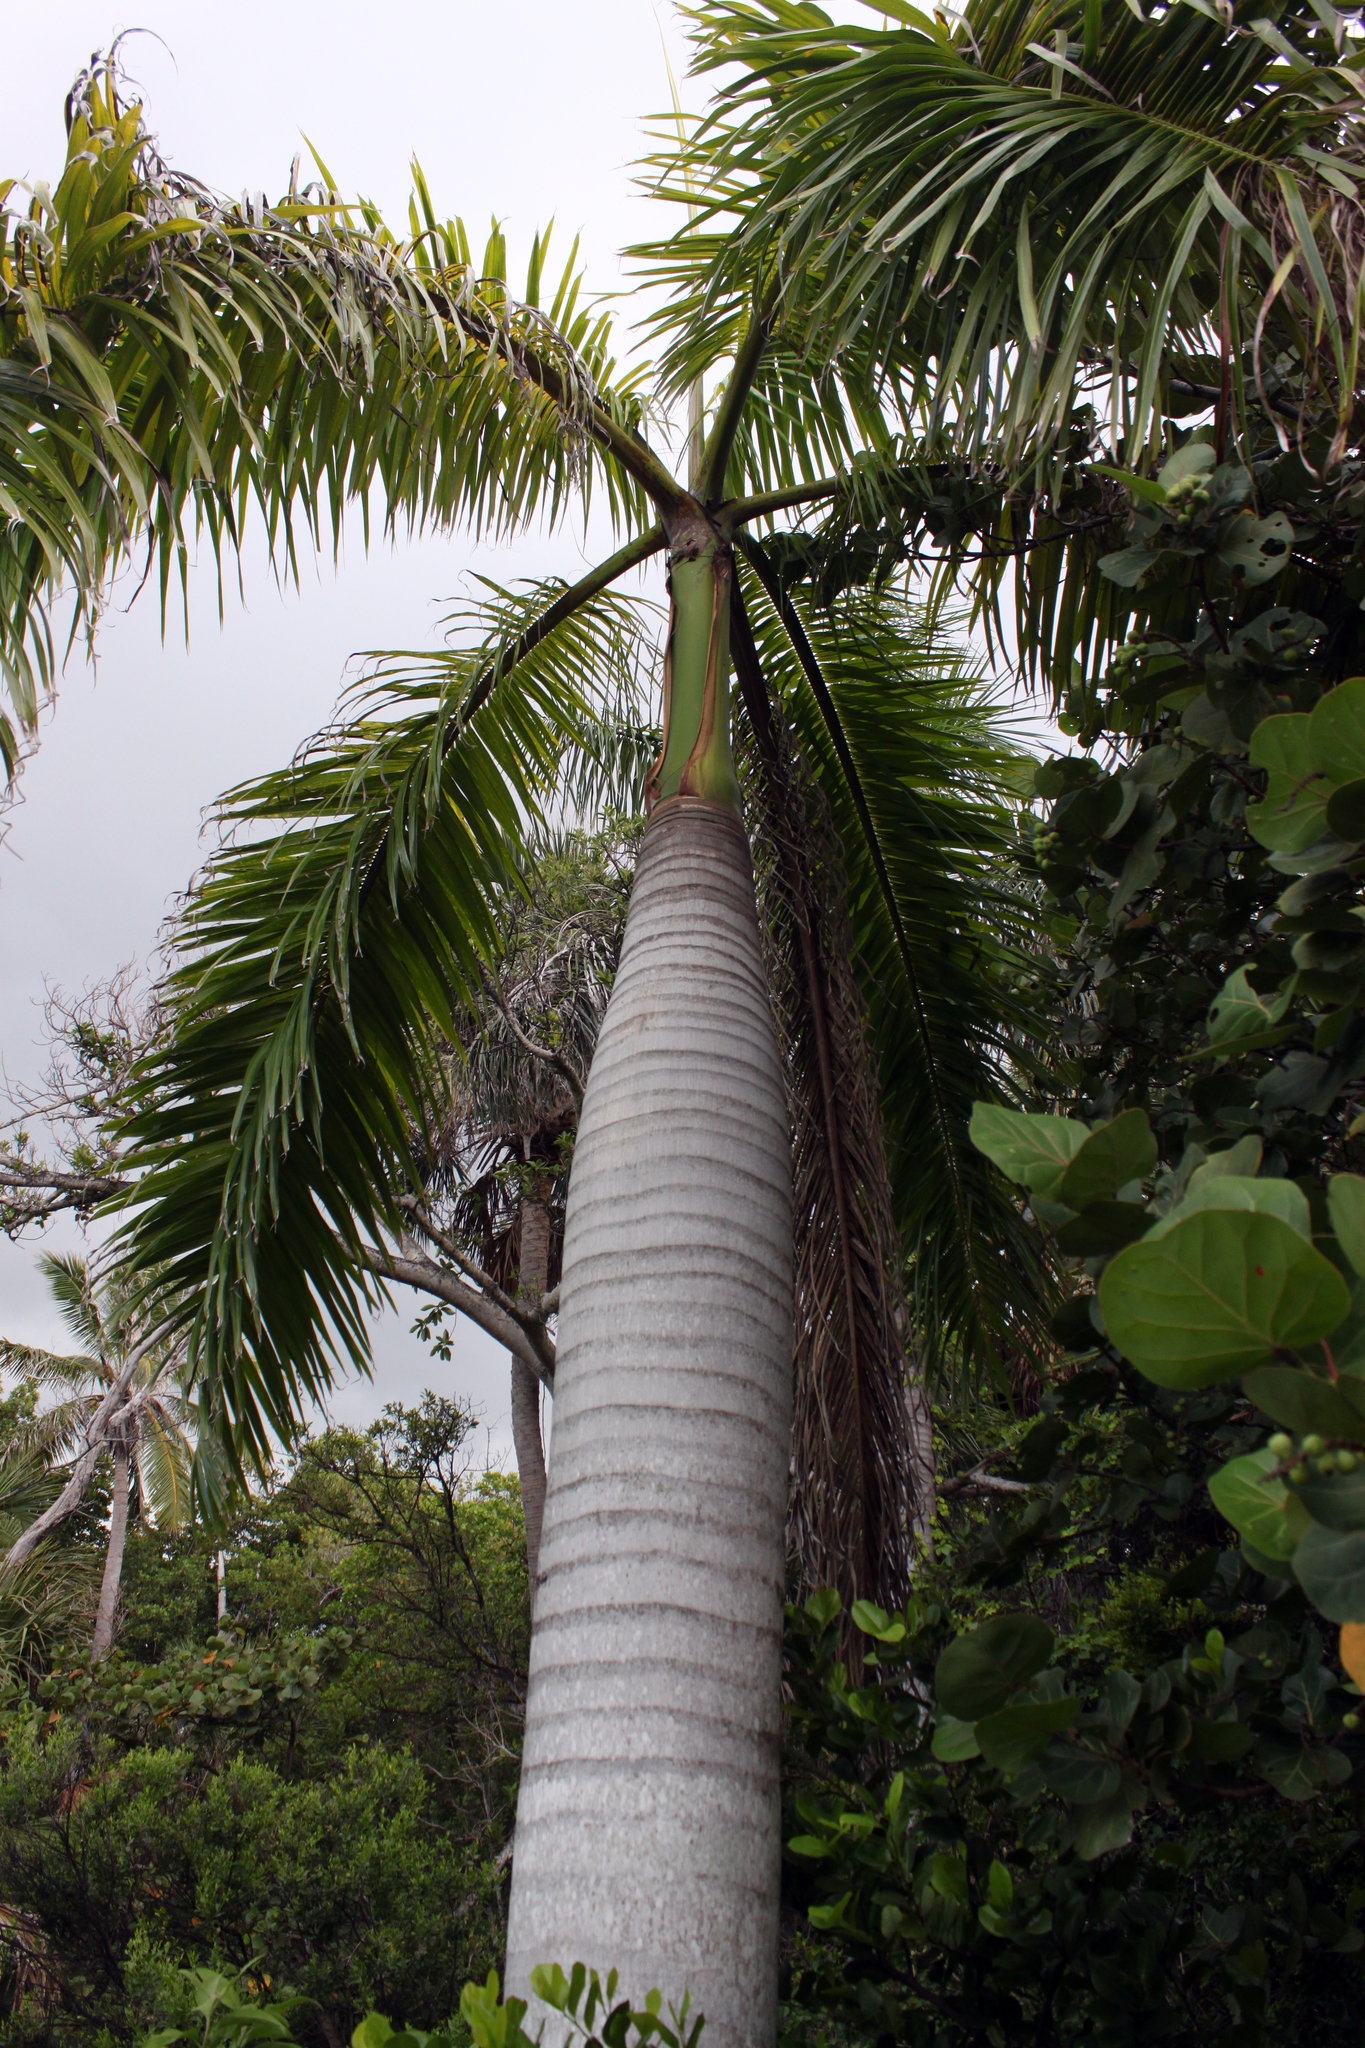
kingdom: Plantae
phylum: Tracheophyta
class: Liliopsida
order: Arecales
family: Arecaceae
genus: Roystonea
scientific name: Roystonea regia
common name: Florida royal palm
